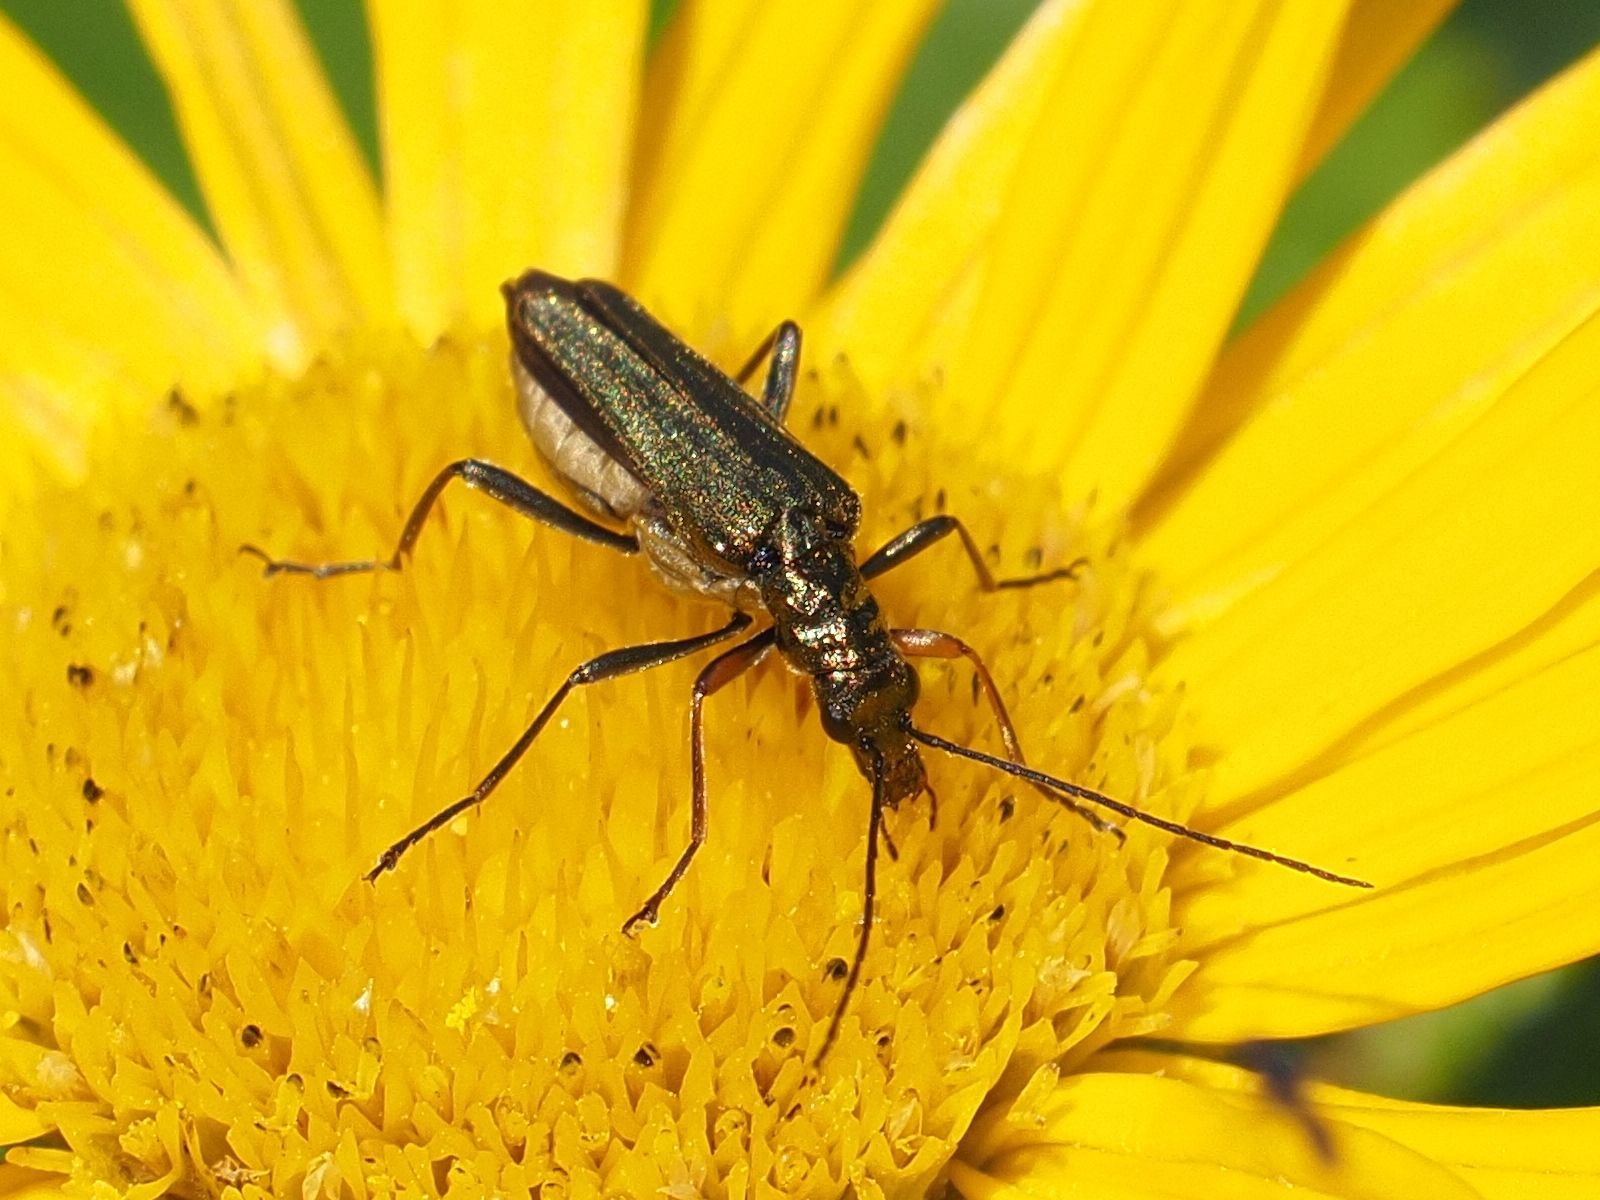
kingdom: Animalia
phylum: Arthropoda
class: Insecta
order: Coleoptera
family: Oedemeridae
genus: Oedemera
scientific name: Oedemera flavipes
